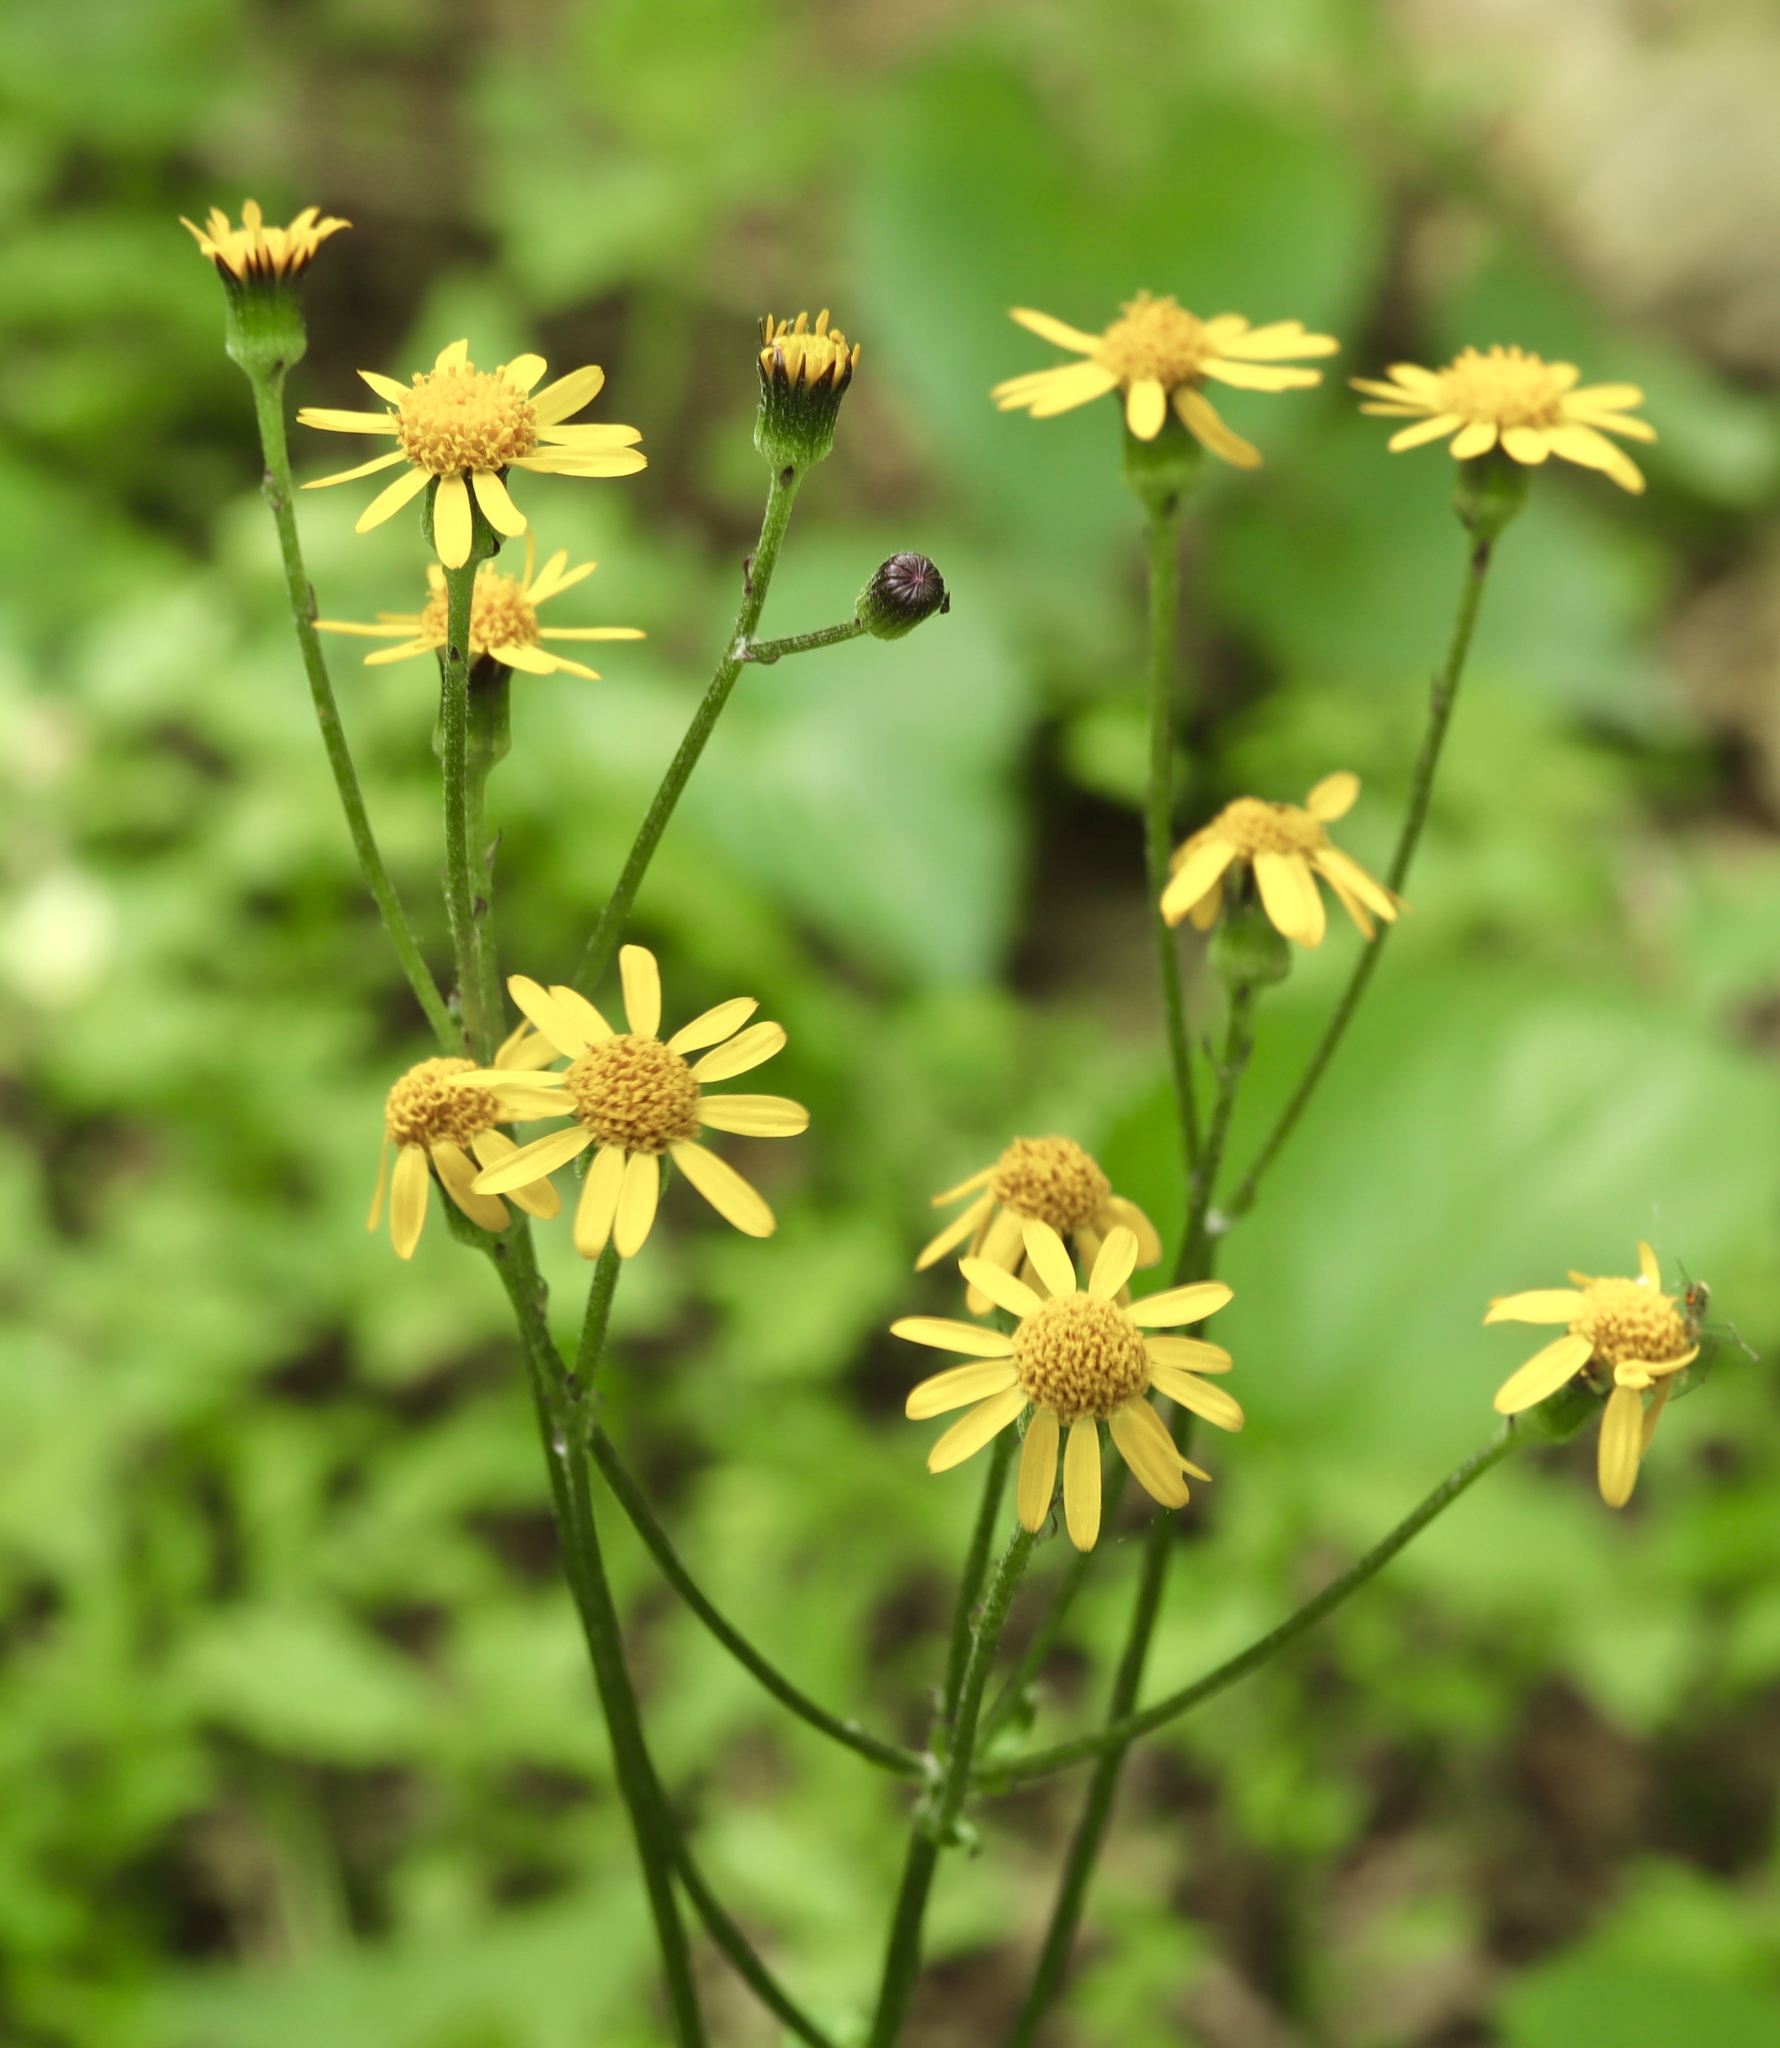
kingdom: Plantae
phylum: Tracheophyta
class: Magnoliopsida
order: Asterales
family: Asteraceae
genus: Packera
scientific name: Packera aurea
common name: Golden groundsel
